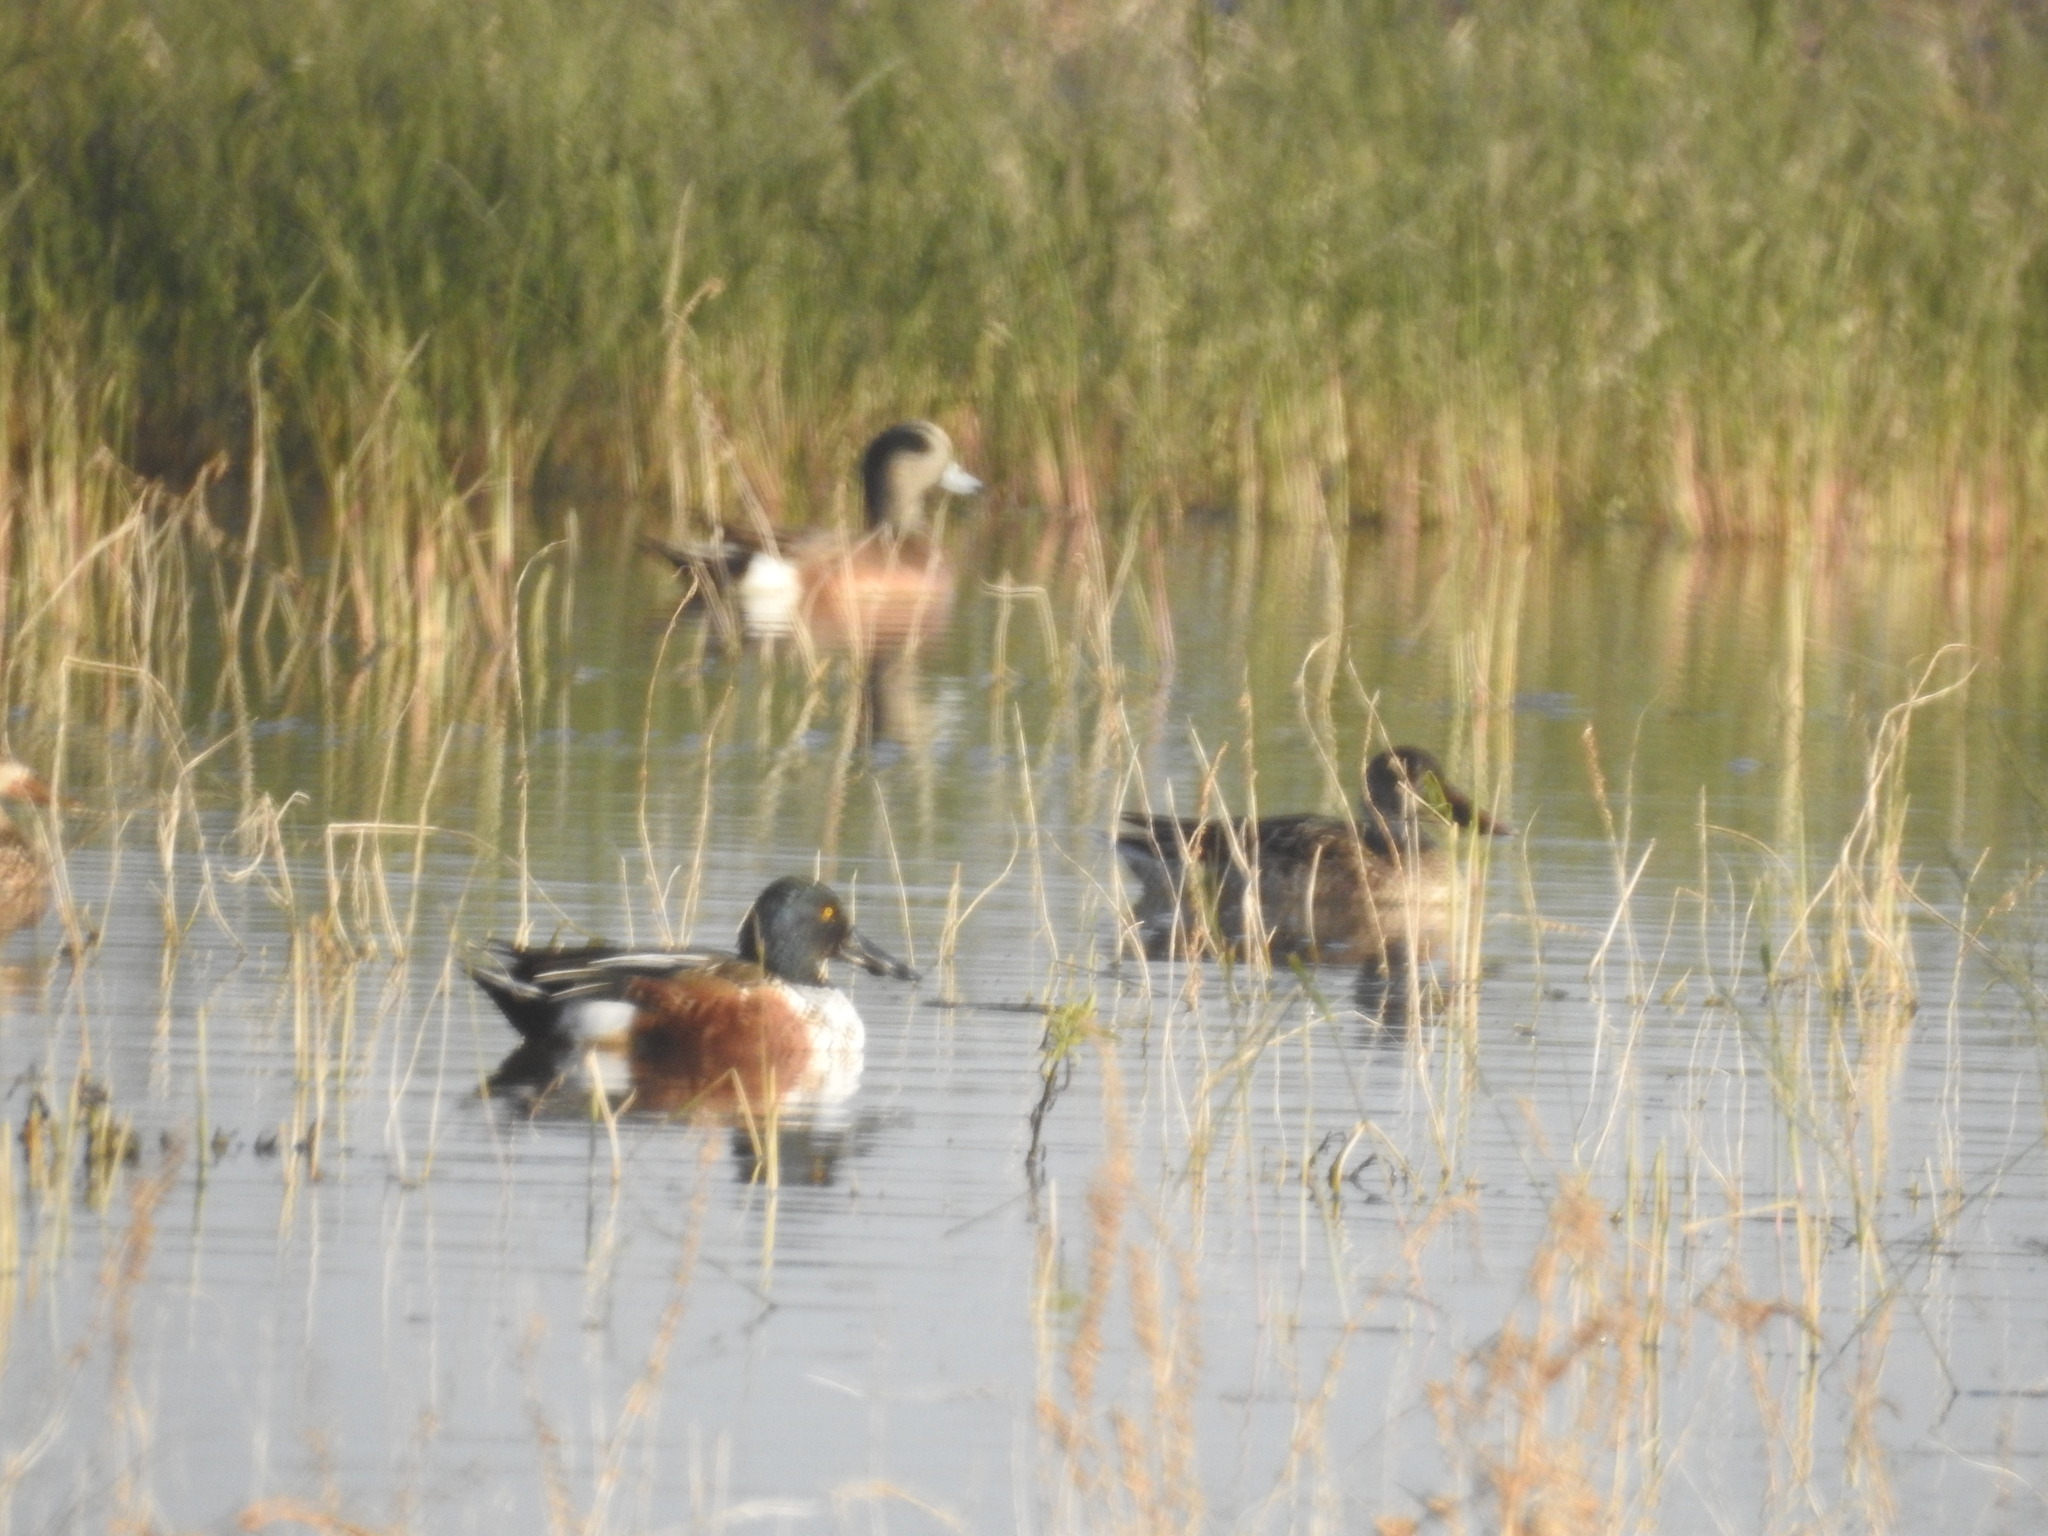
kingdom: Animalia
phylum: Chordata
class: Aves
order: Anseriformes
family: Anatidae
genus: Spatula
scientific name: Spatula clypeata
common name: Northern shoveler
